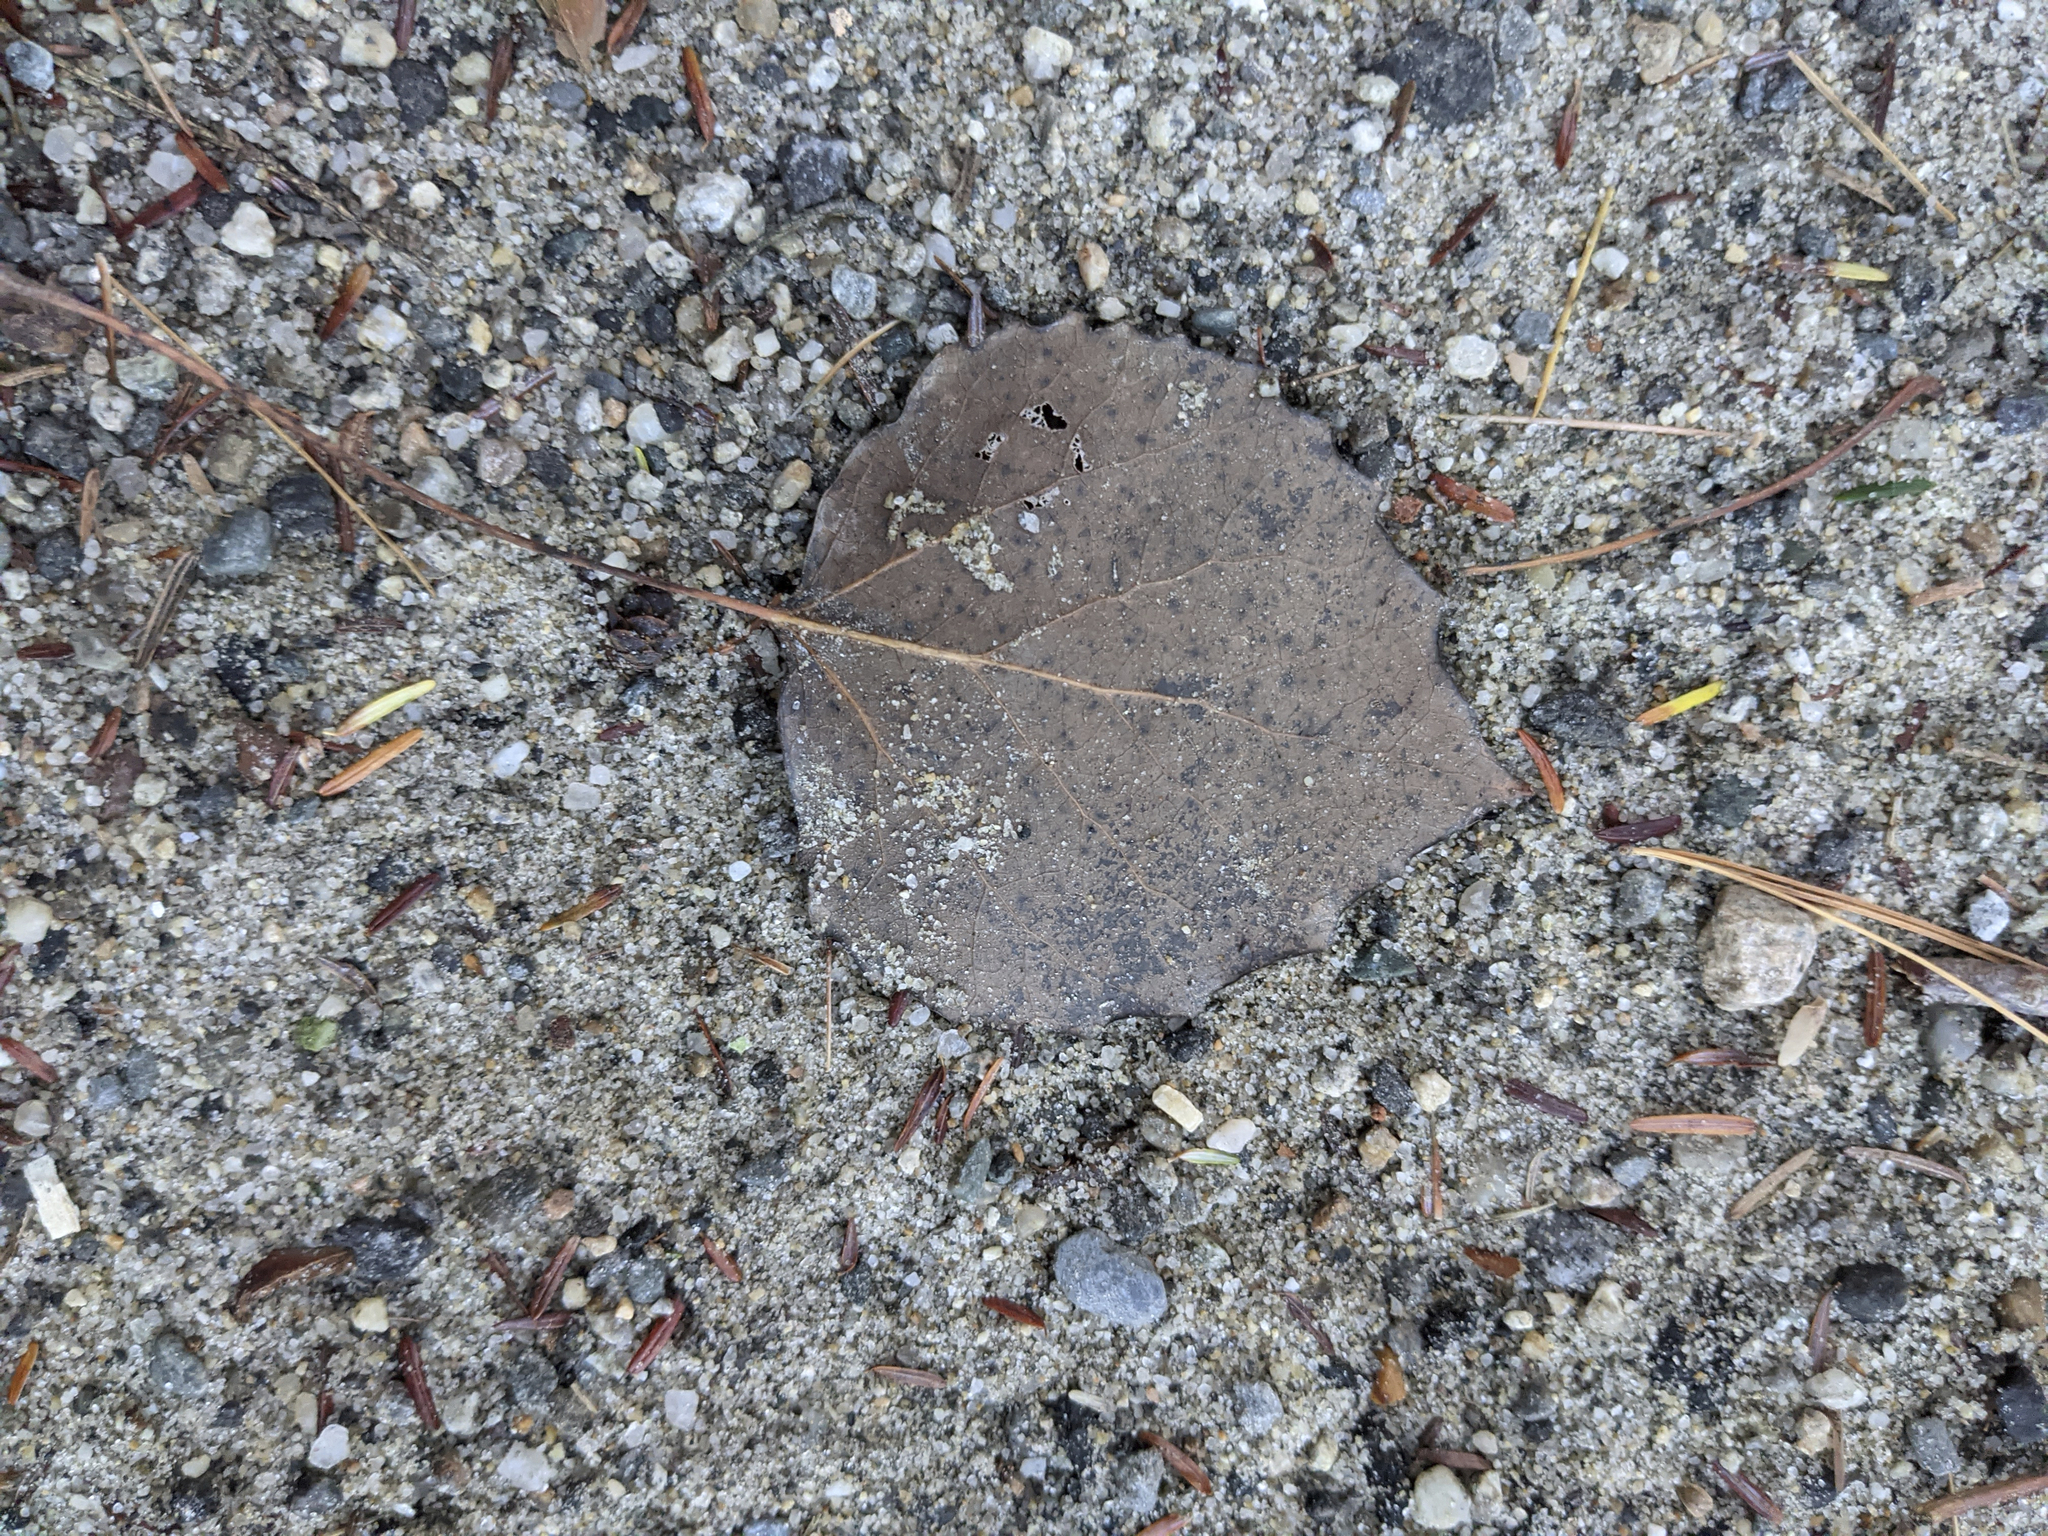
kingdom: Plantae
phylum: Tracheophyta
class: Magnoliopsida
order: Malpighiales
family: Salicaceae
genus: Populus
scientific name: Populus grandidentata
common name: Bigtooth aspen
